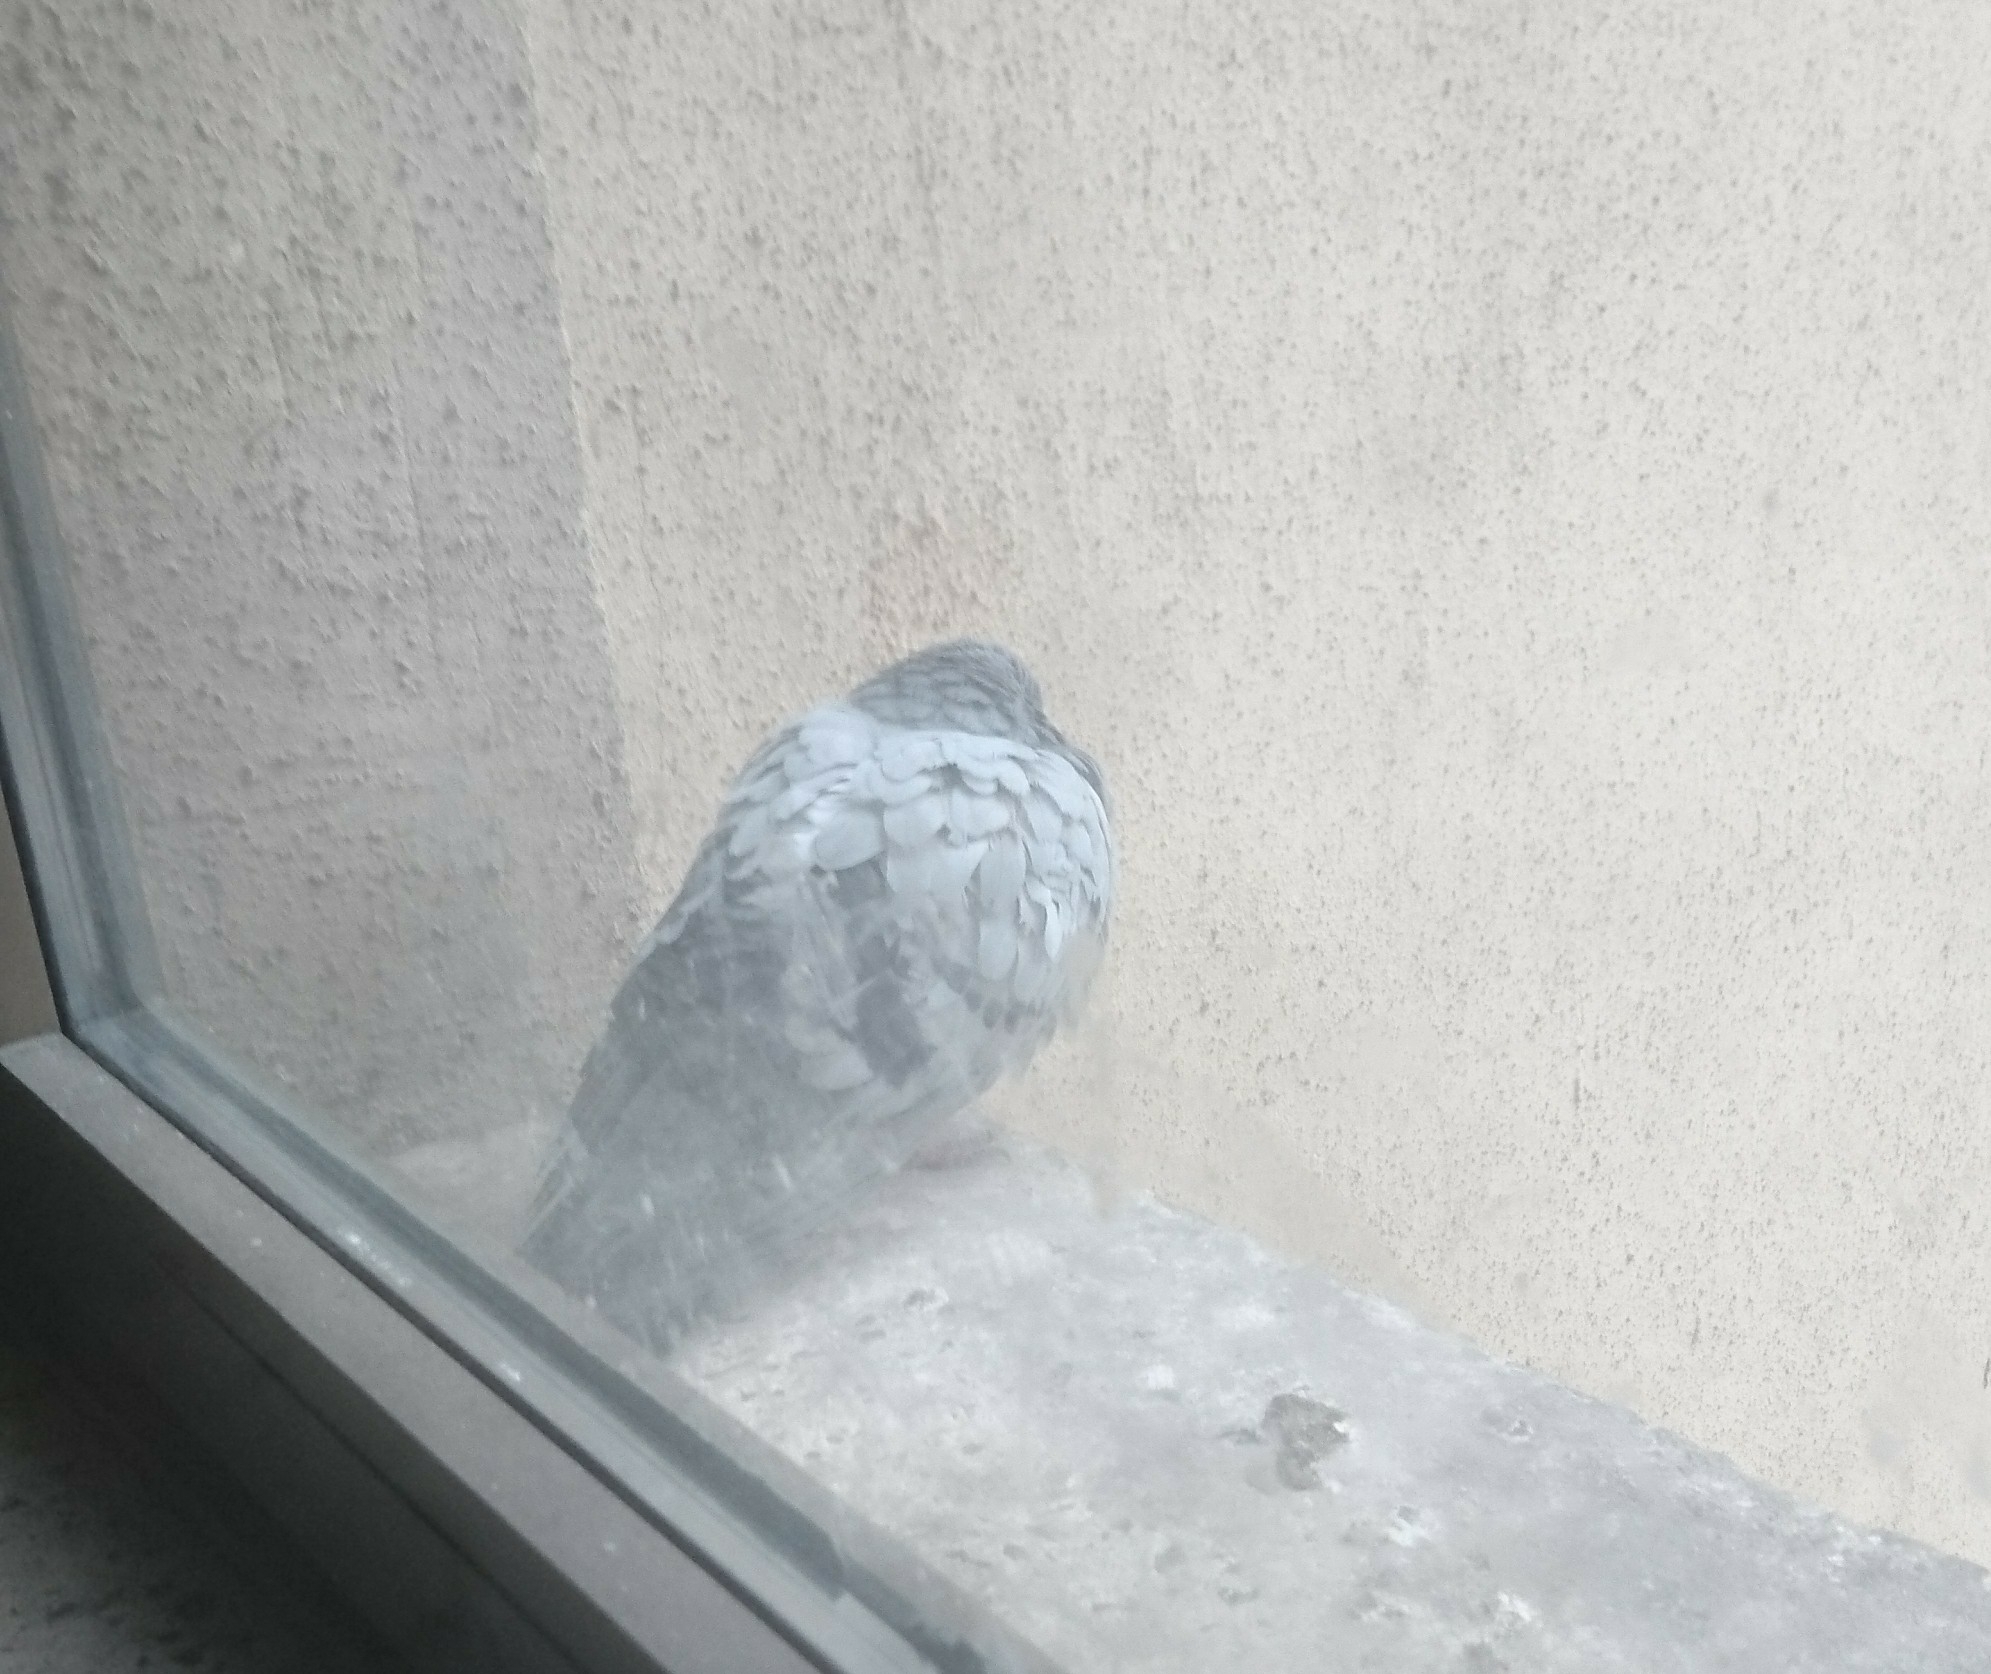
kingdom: Animalia
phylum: Chordata
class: Aves
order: Columbiformes
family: Columbidae
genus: Columba
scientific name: Columba livia
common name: Rock pigeon
